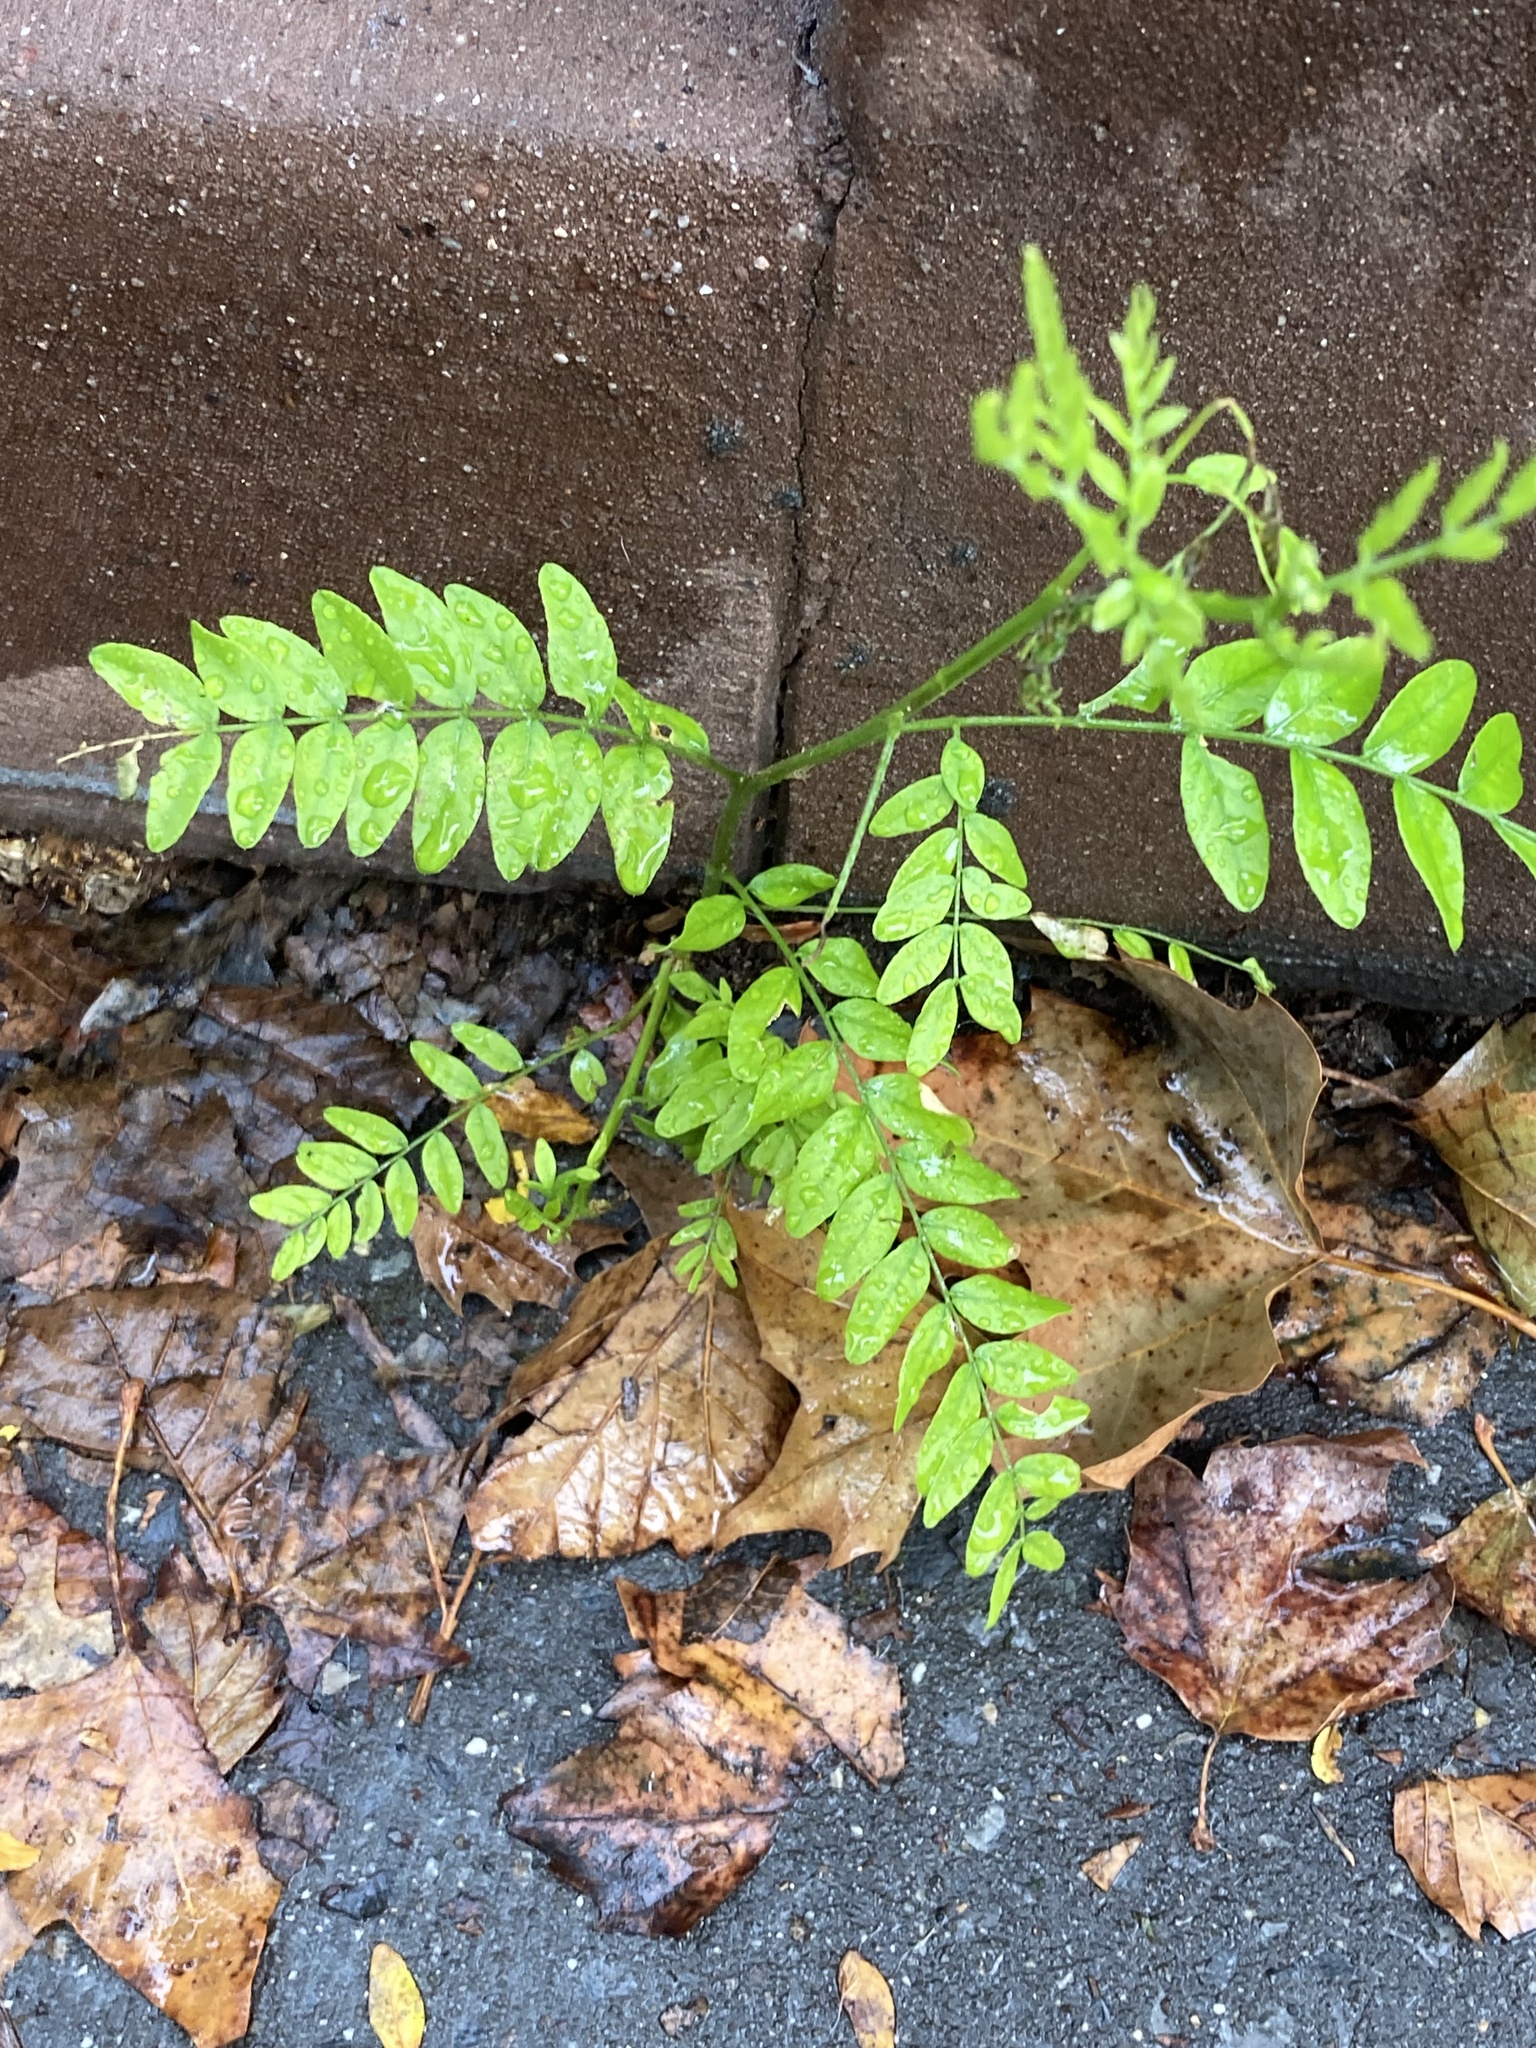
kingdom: Plantae
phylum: Tracheophyta
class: Magnoliopsida
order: Fabales
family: Fabaceae
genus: Gleditsia
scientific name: Gleditsia triacanthos
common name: Common honeylocust
